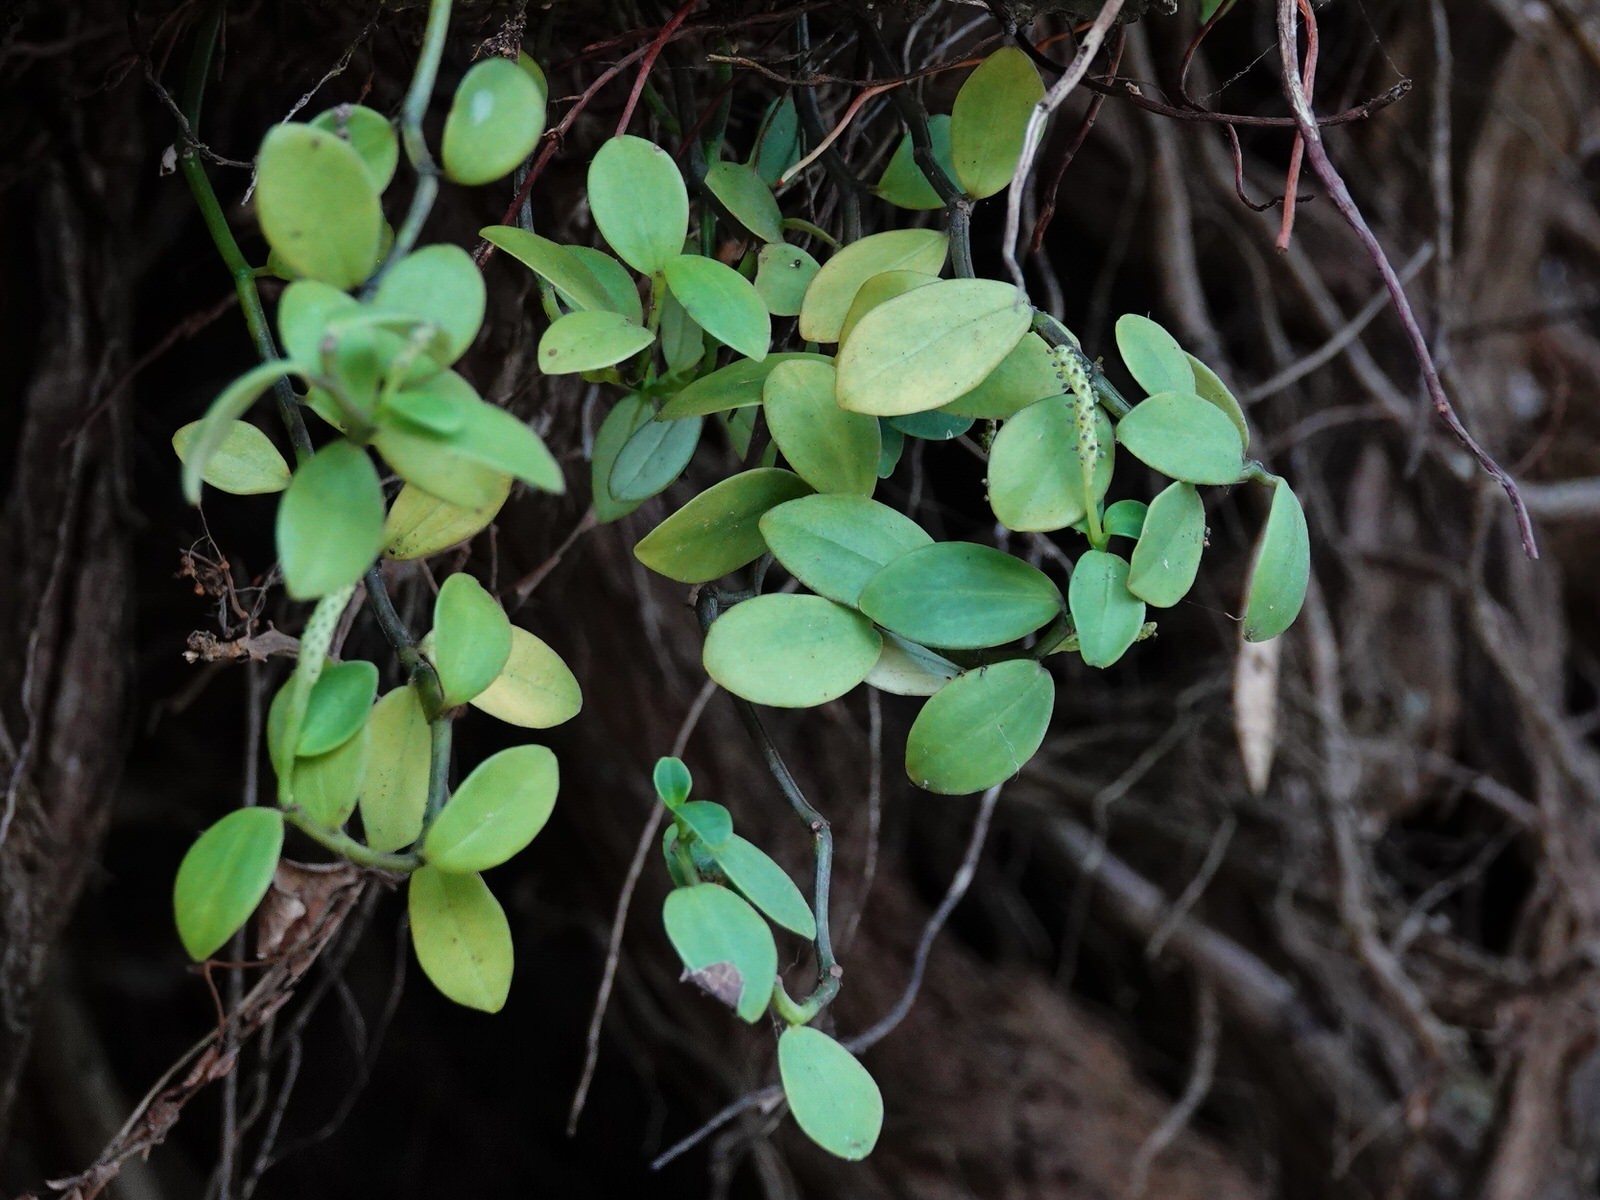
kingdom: Plantae
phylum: Tracheophyta
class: Magnoliopsida
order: Piperales
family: Piperaceae
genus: Peperomia
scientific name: Peperomia urvilleana
